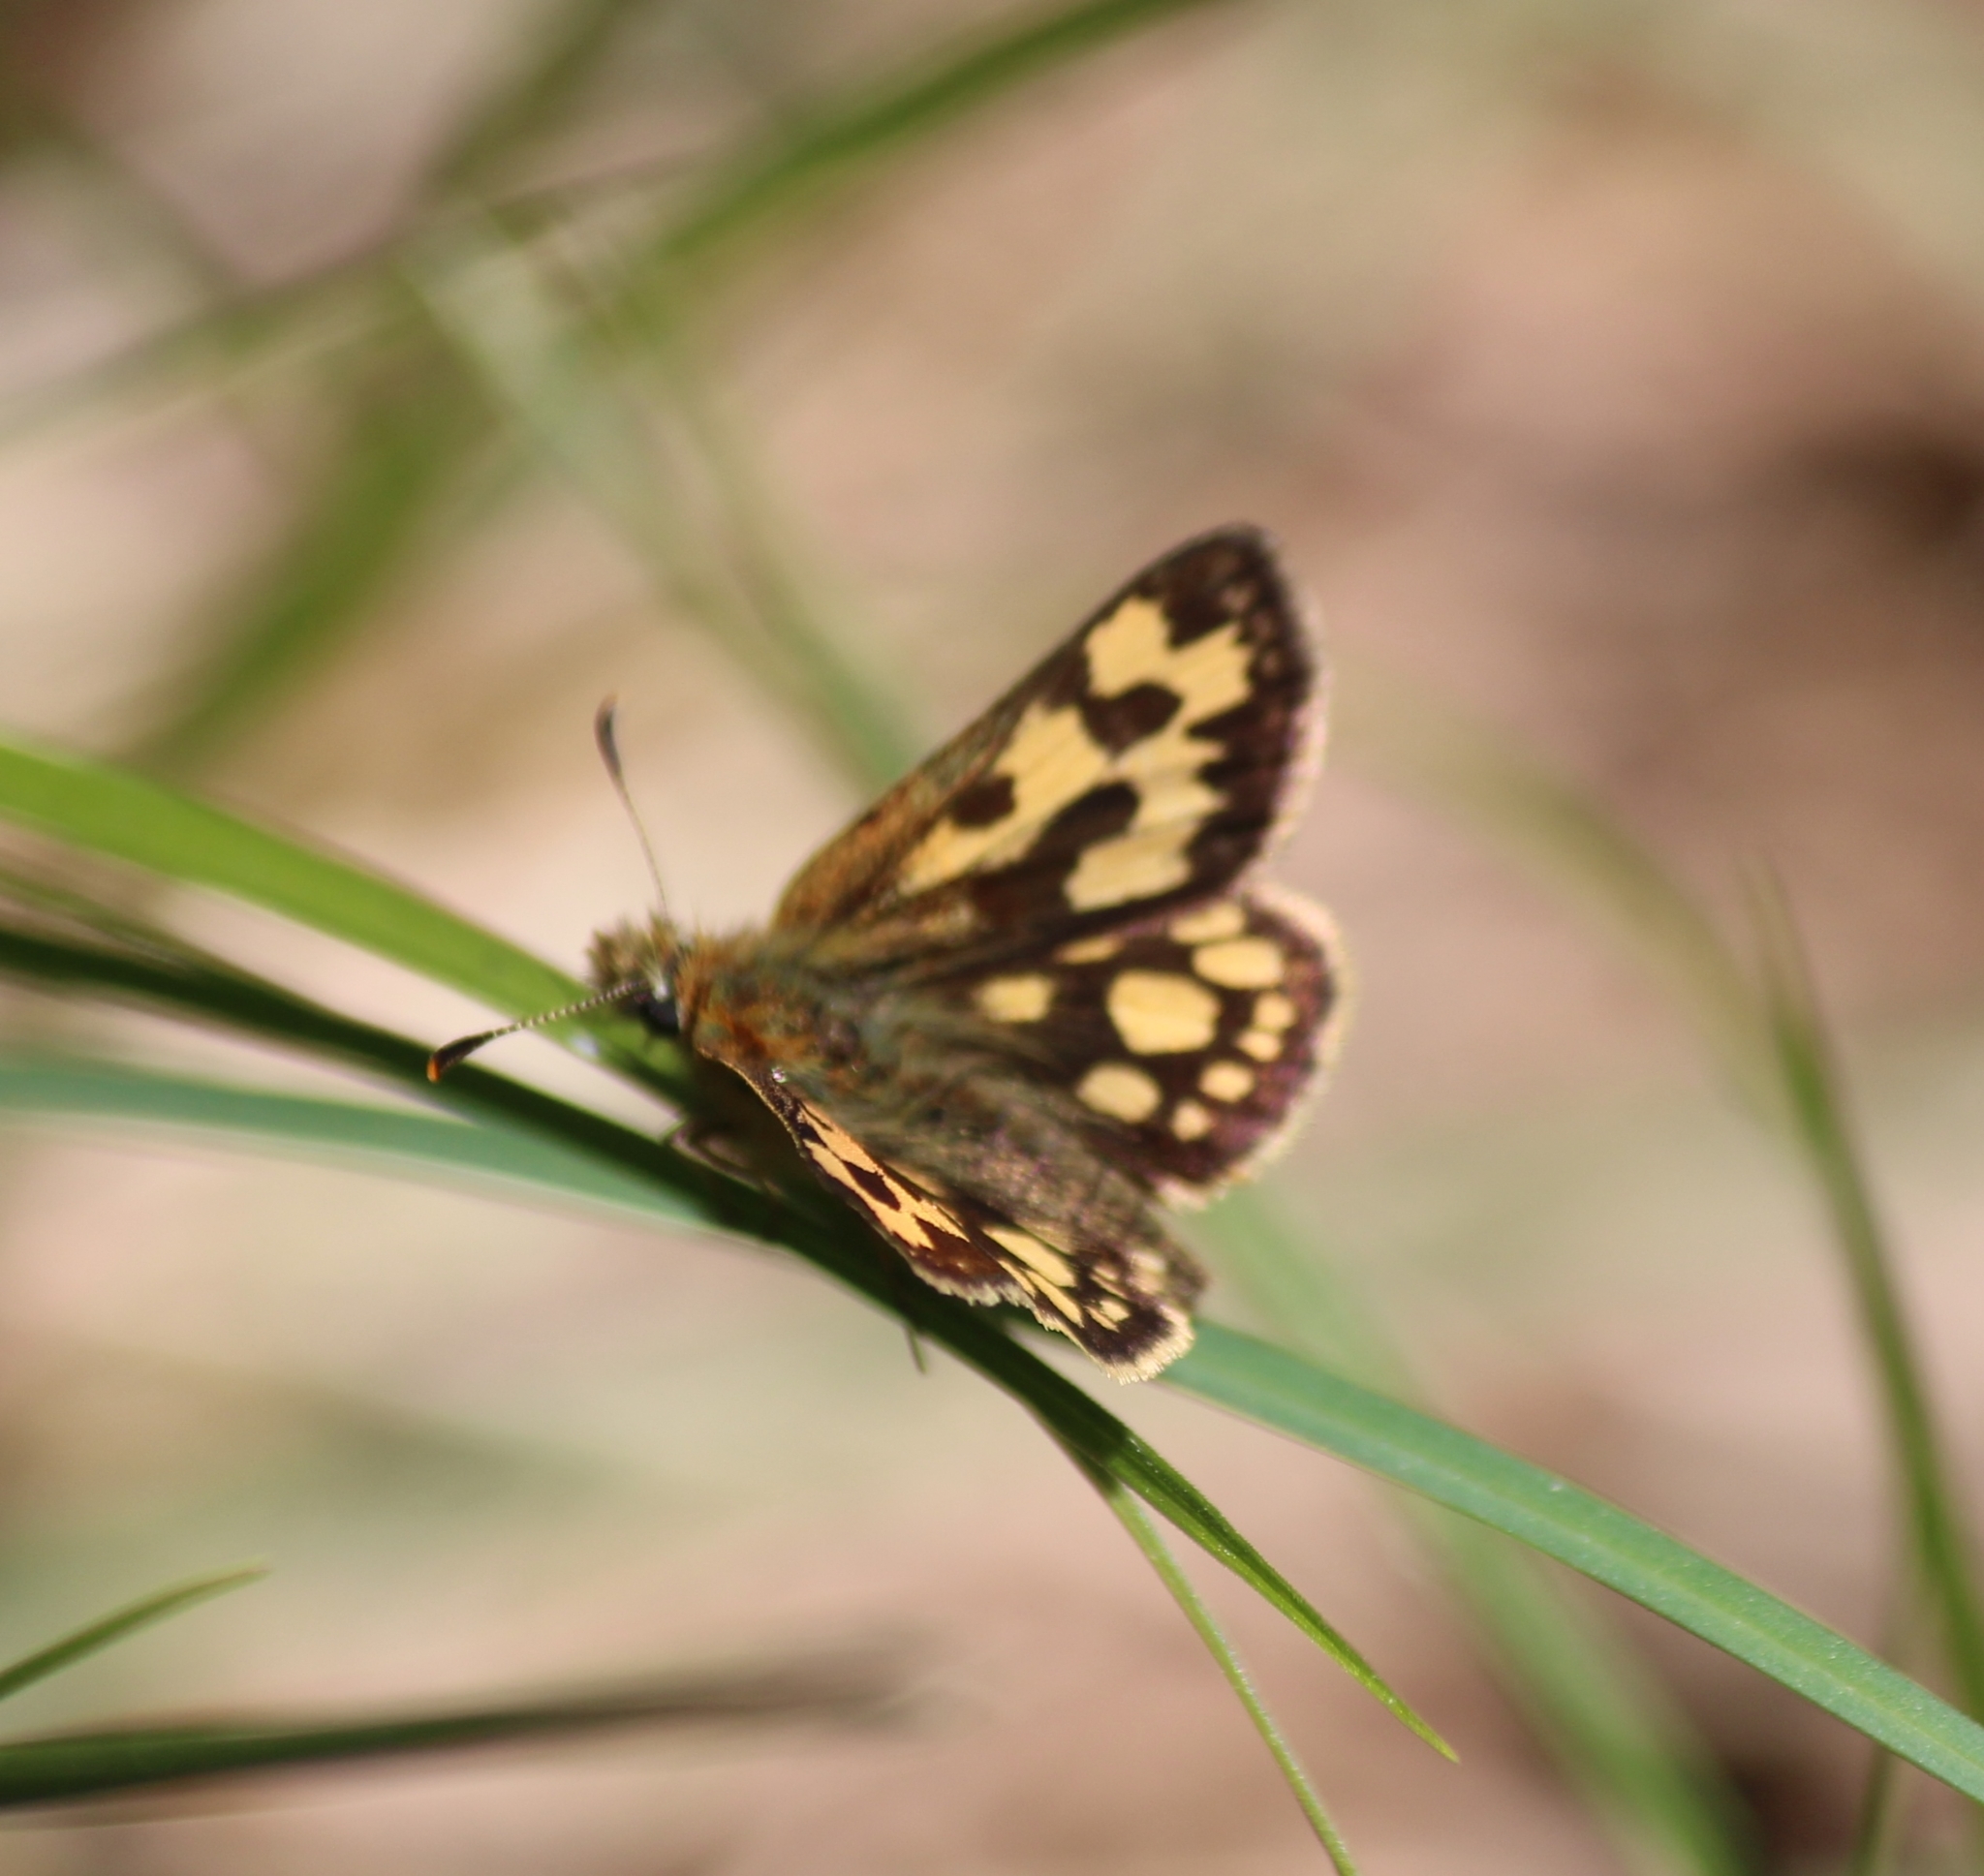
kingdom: Animalia
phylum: Arthropoda
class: Insecta
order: Lepidoptera
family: Hesperiidae
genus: Carterocephalus
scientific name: Carterocephalus silvicola
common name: Northern chequered skipper
